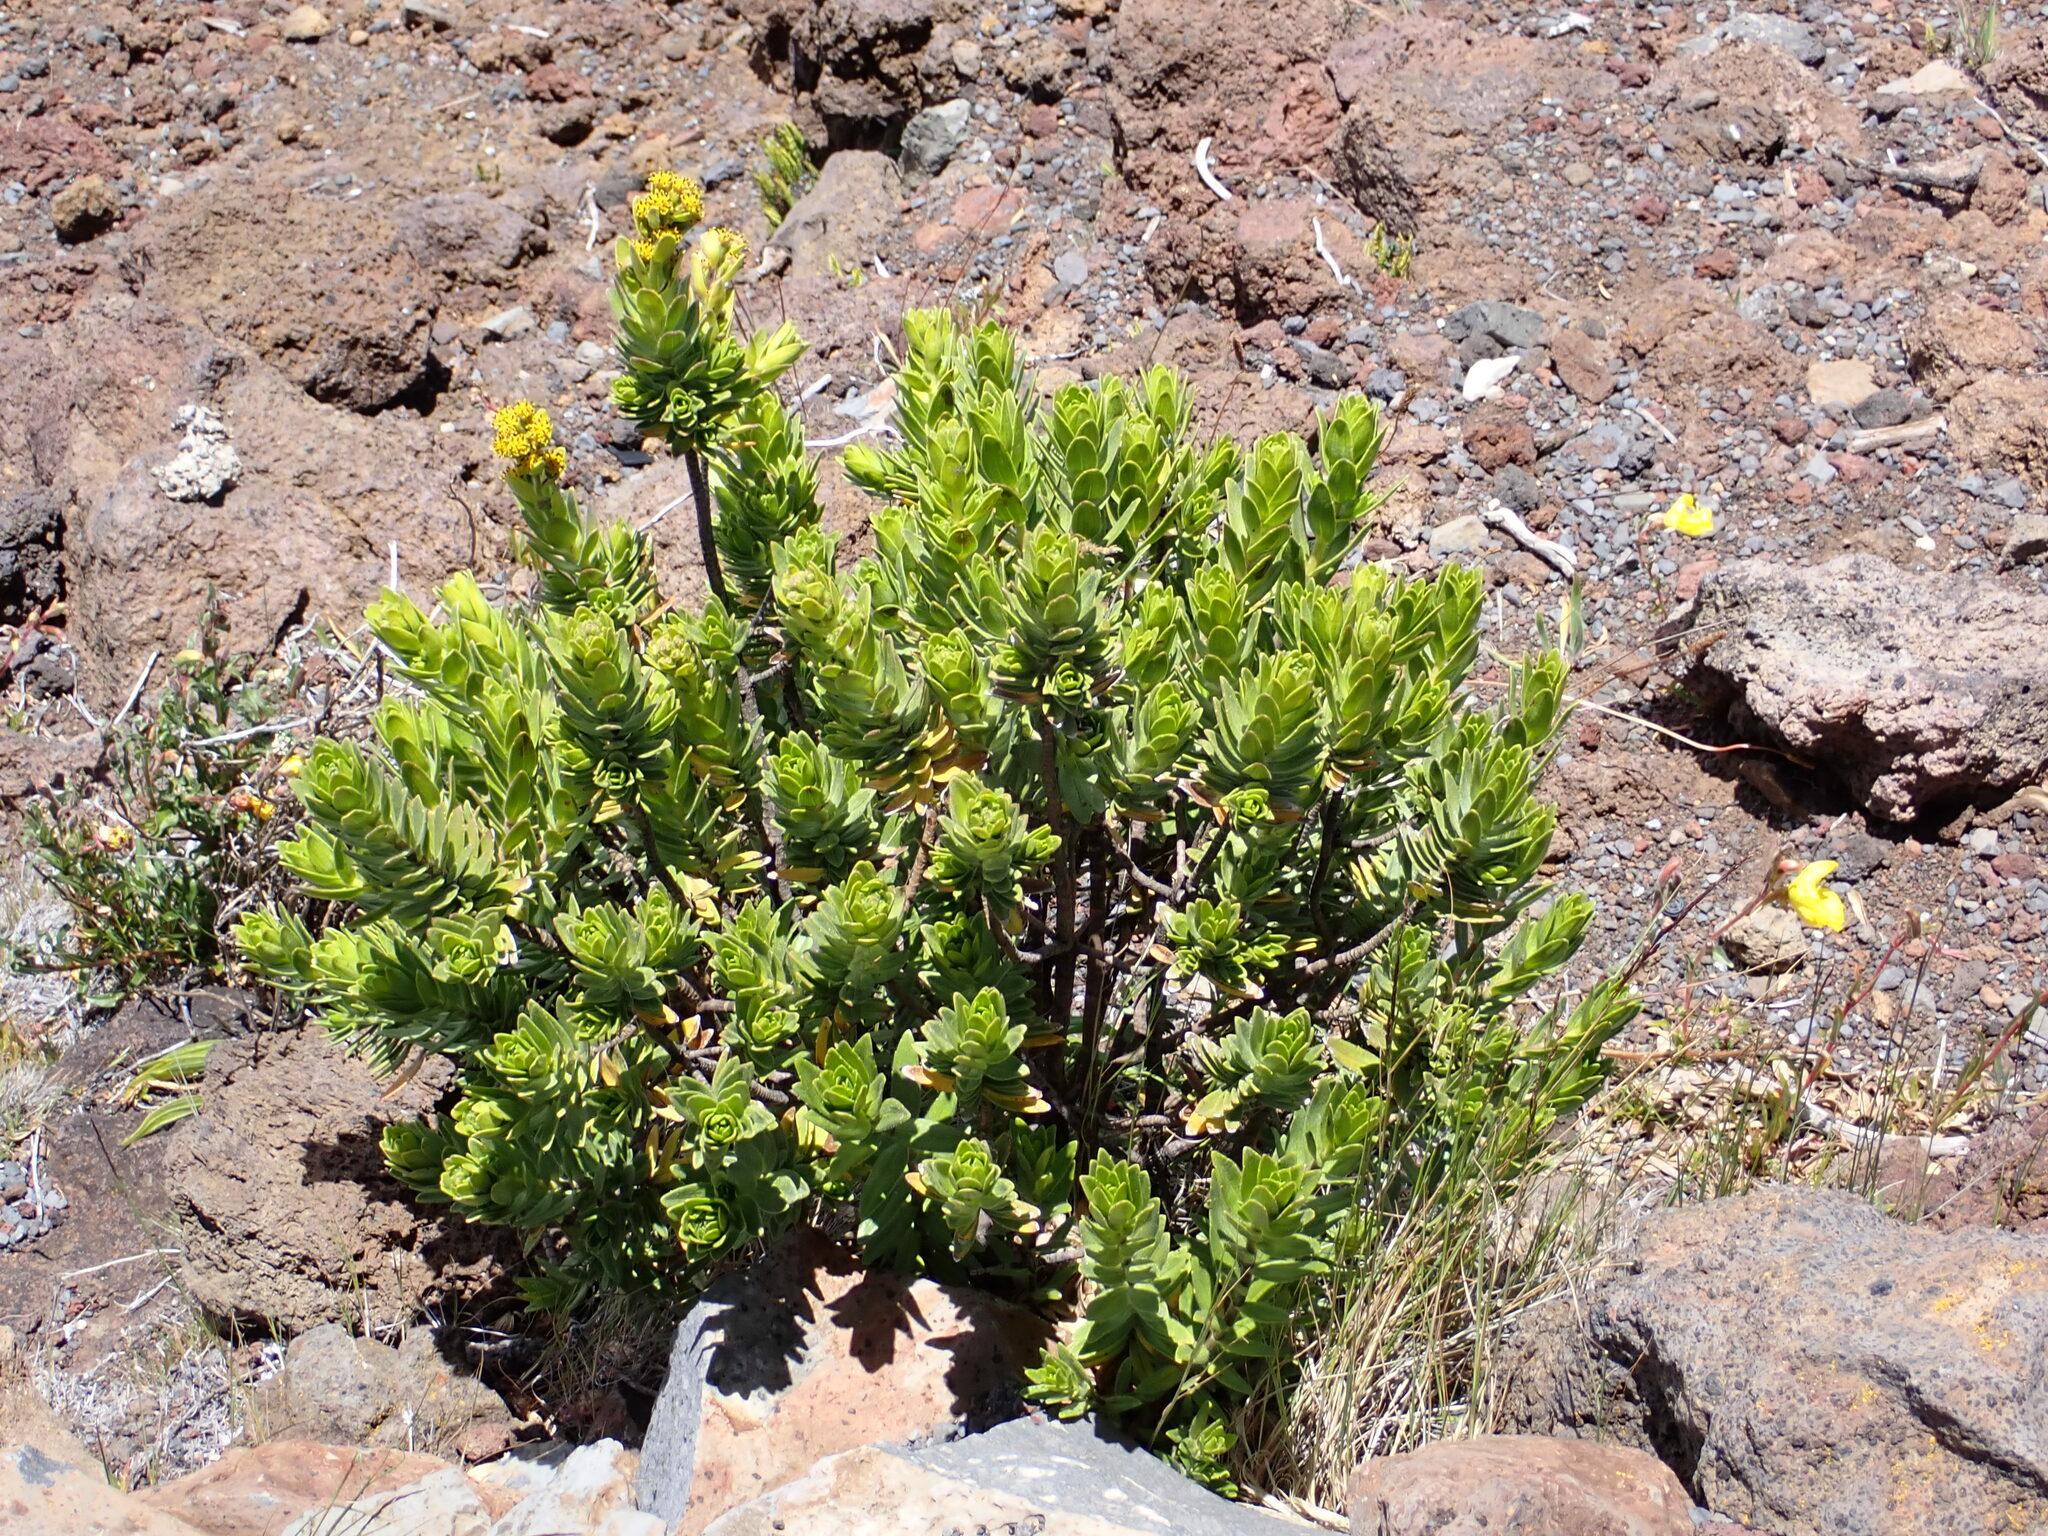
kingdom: Plantae
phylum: Tracheophyta
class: Magnoliopsida
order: Asterales
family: Asteraceae
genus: Dubautia
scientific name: Dubautia menziesii
